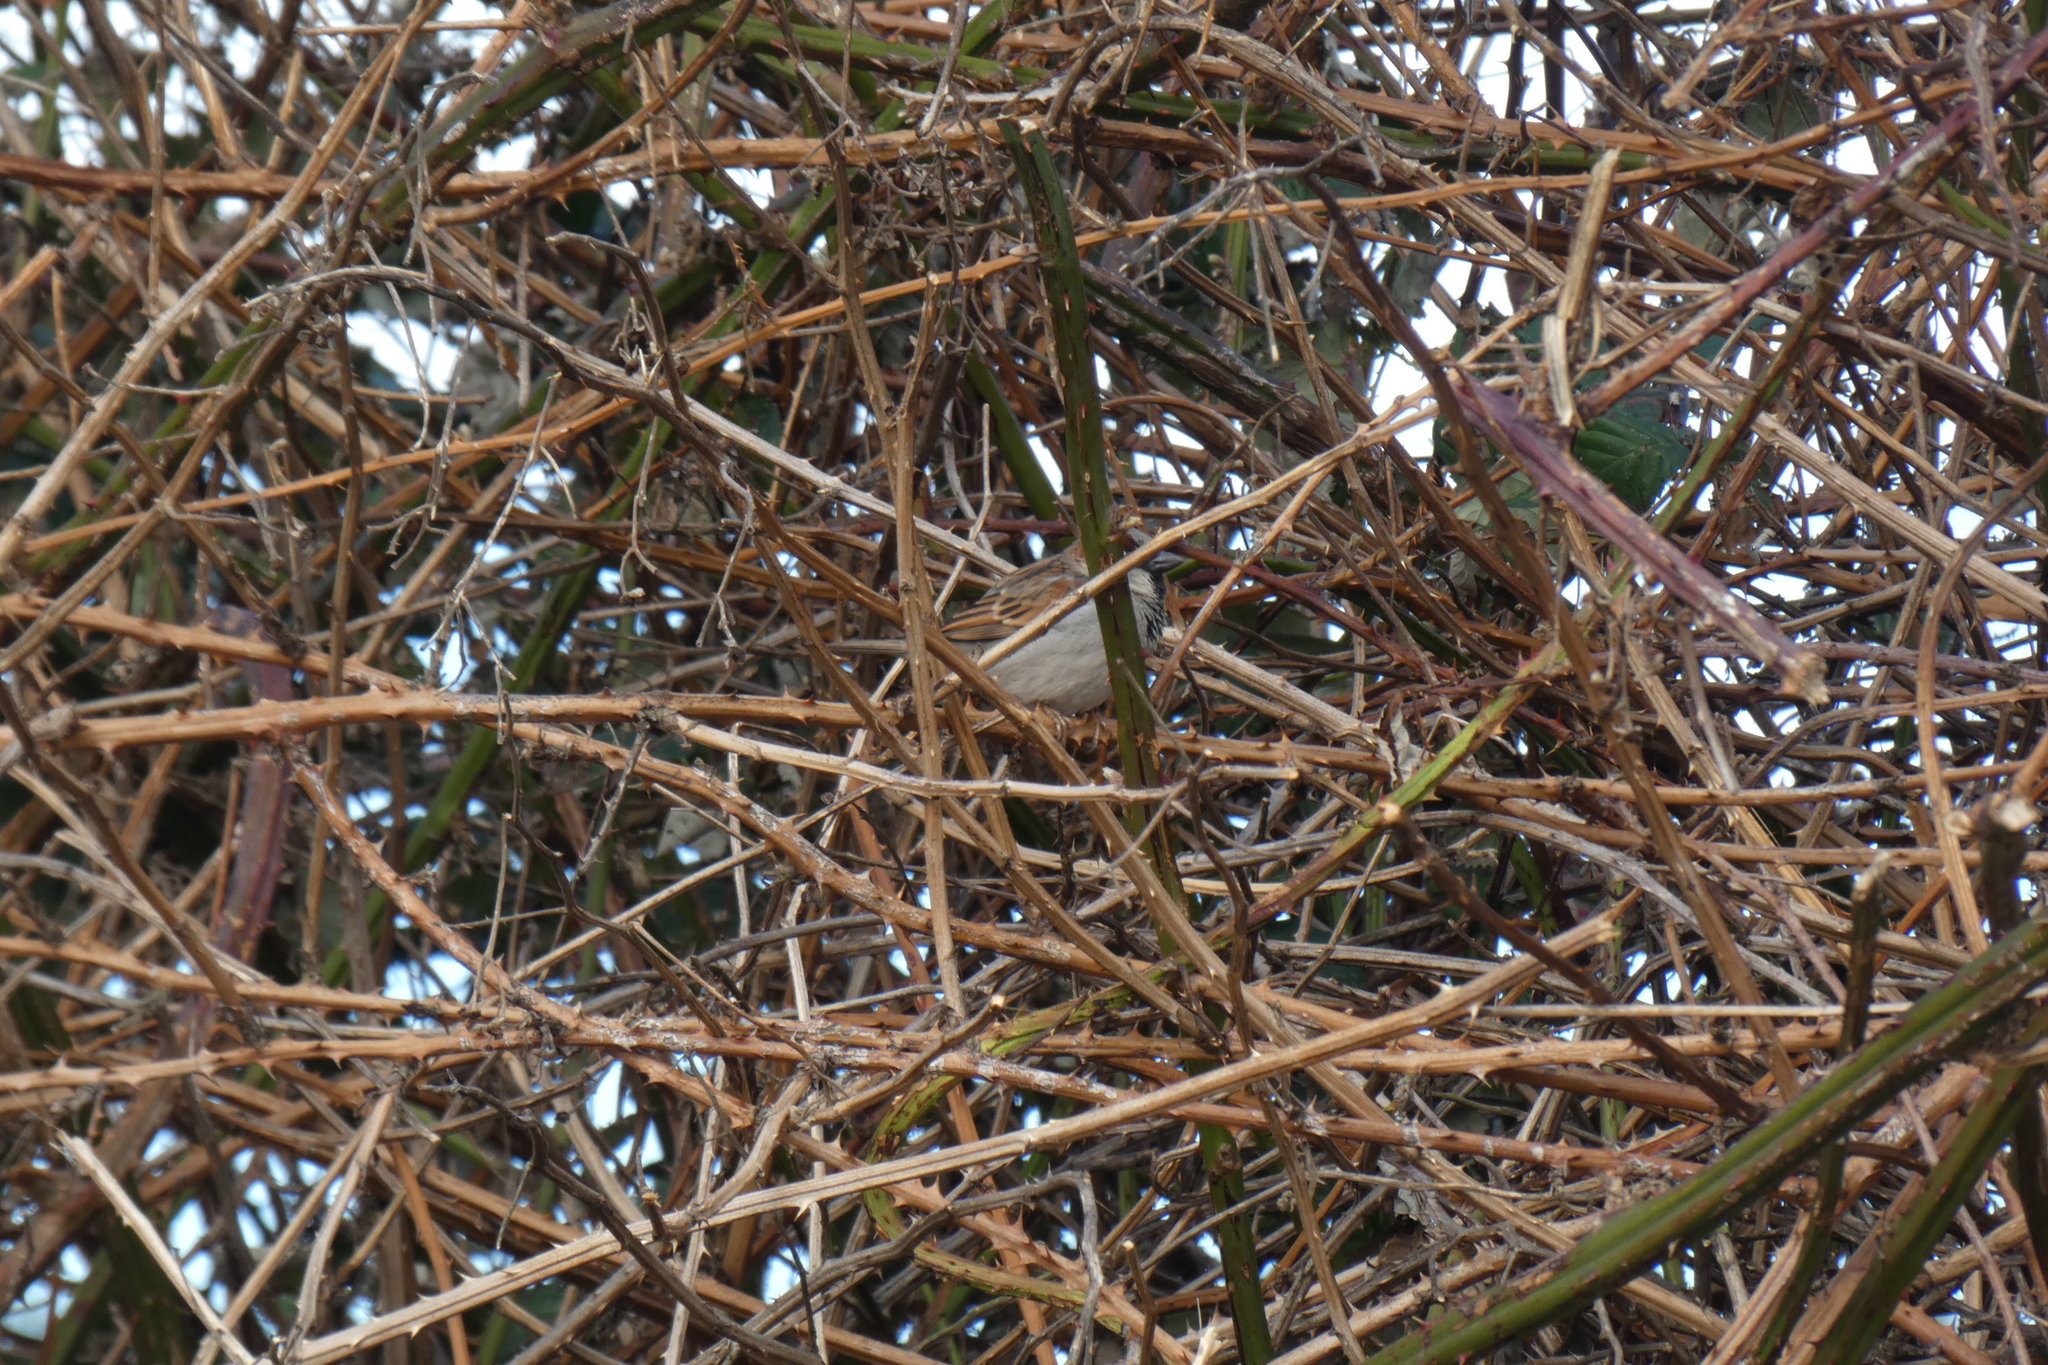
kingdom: Animalia
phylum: Chordata
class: Aves
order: Passeriformes
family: Passeridae
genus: Passer
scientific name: Passer domesticus
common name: House sparrow
